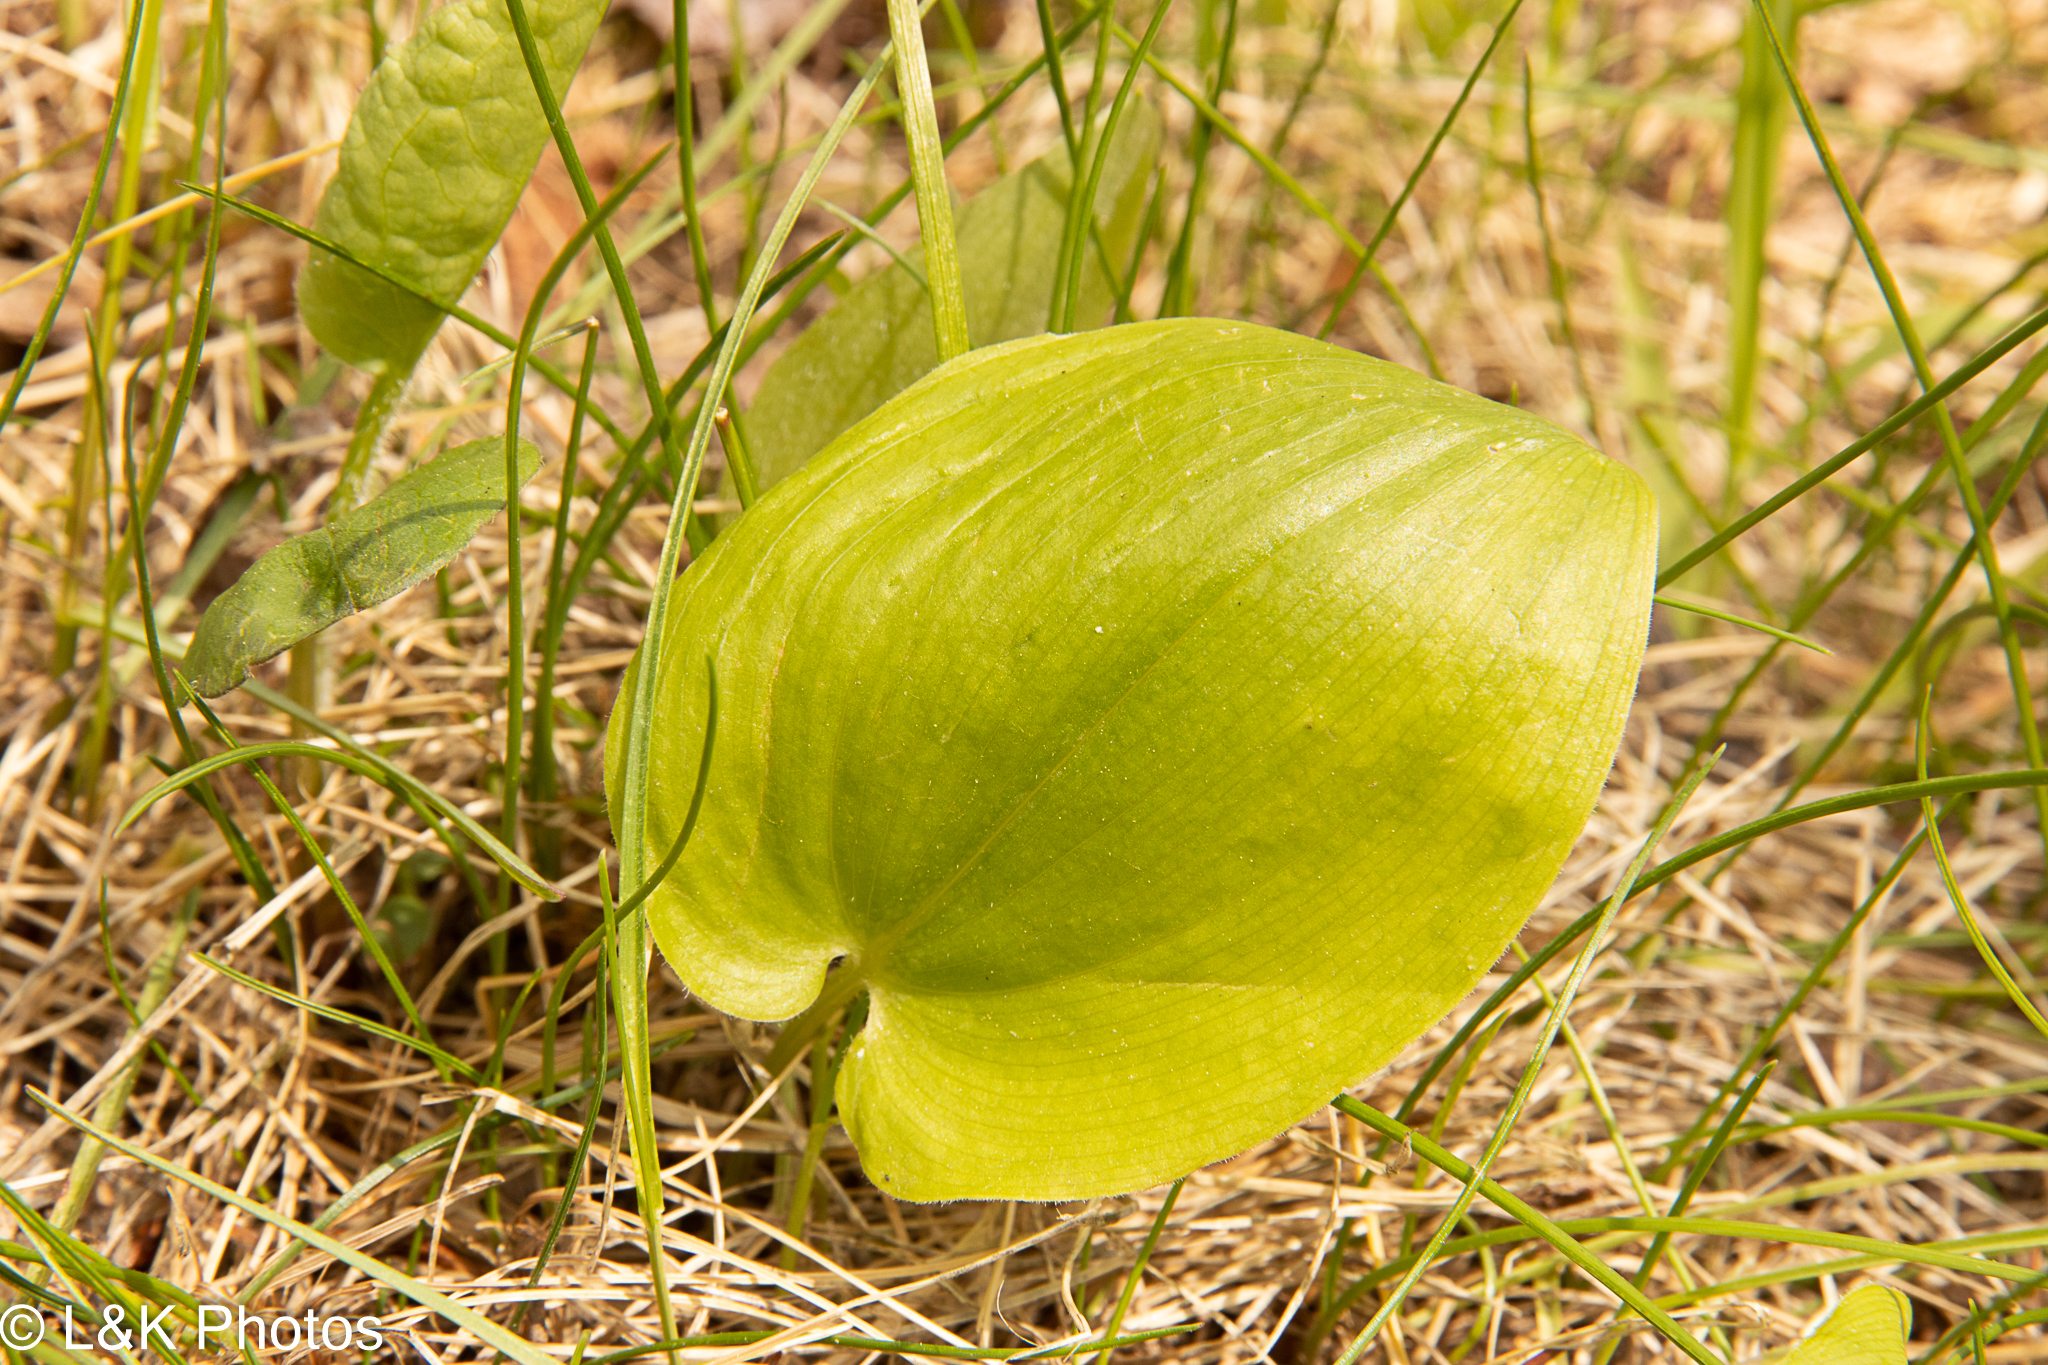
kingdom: Plantae
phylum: Tracheophyta
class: Liliopsida
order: Asparagales
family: Asparagaceae
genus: Maianthemum
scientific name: Maianthemum canadense
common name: False lily-of-the-valley
